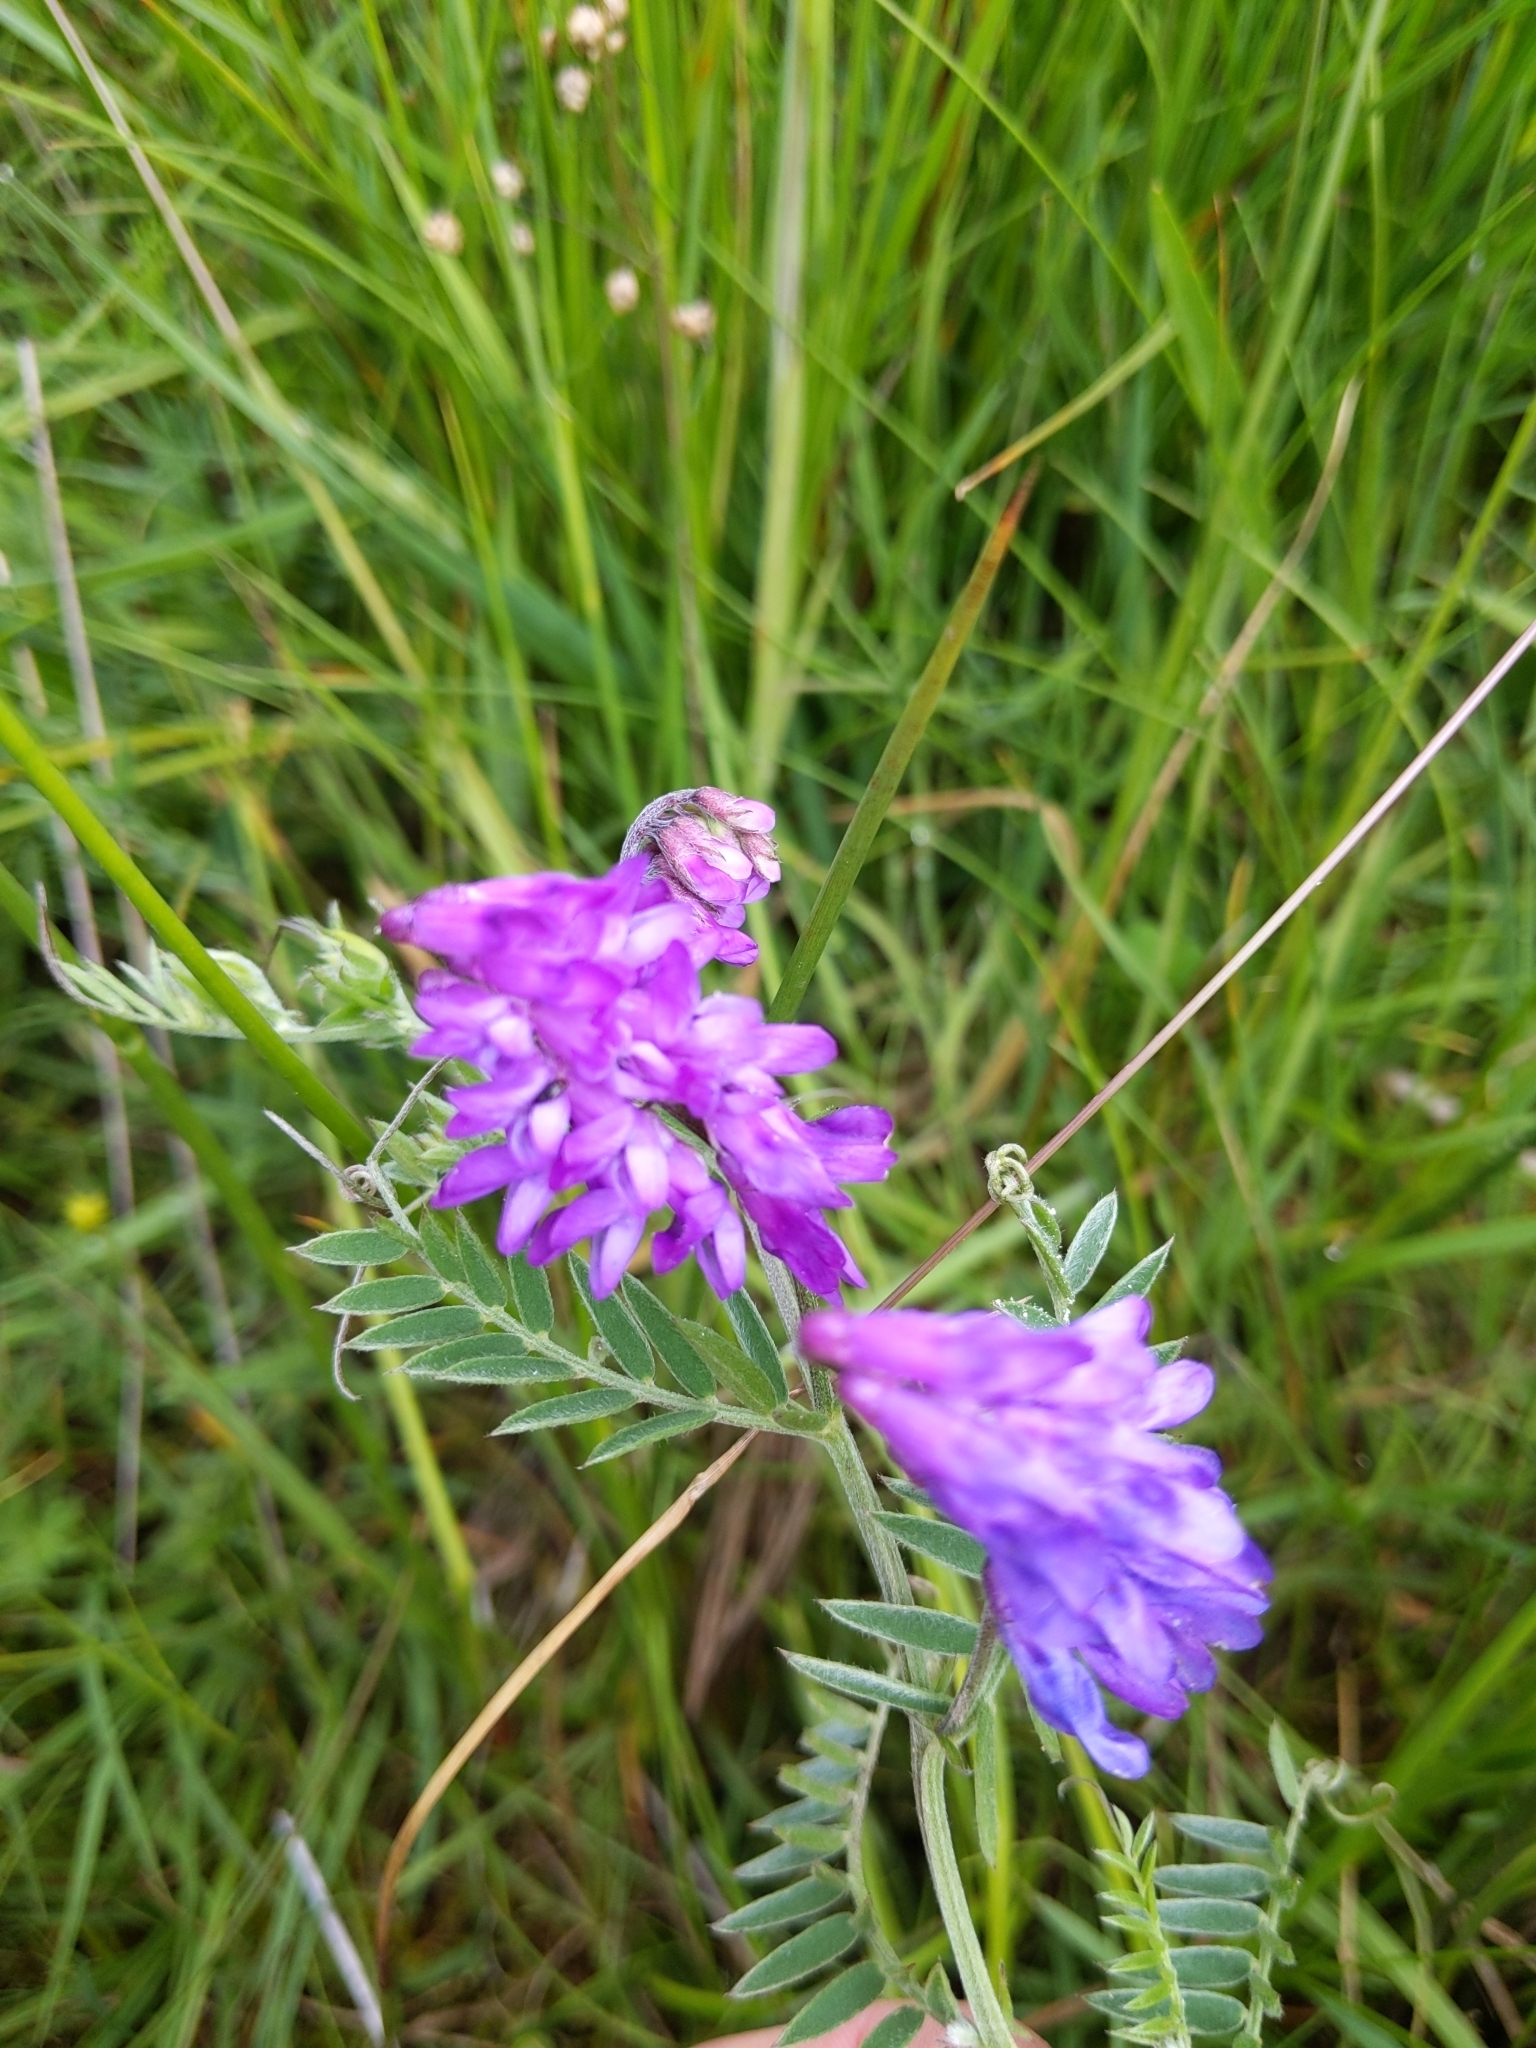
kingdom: Plantae
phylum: Tracheophyta
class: Magnoliopsida
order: Fabales
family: Fabaceae
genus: Vicia
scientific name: Vicia cracca
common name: Bird vetch
